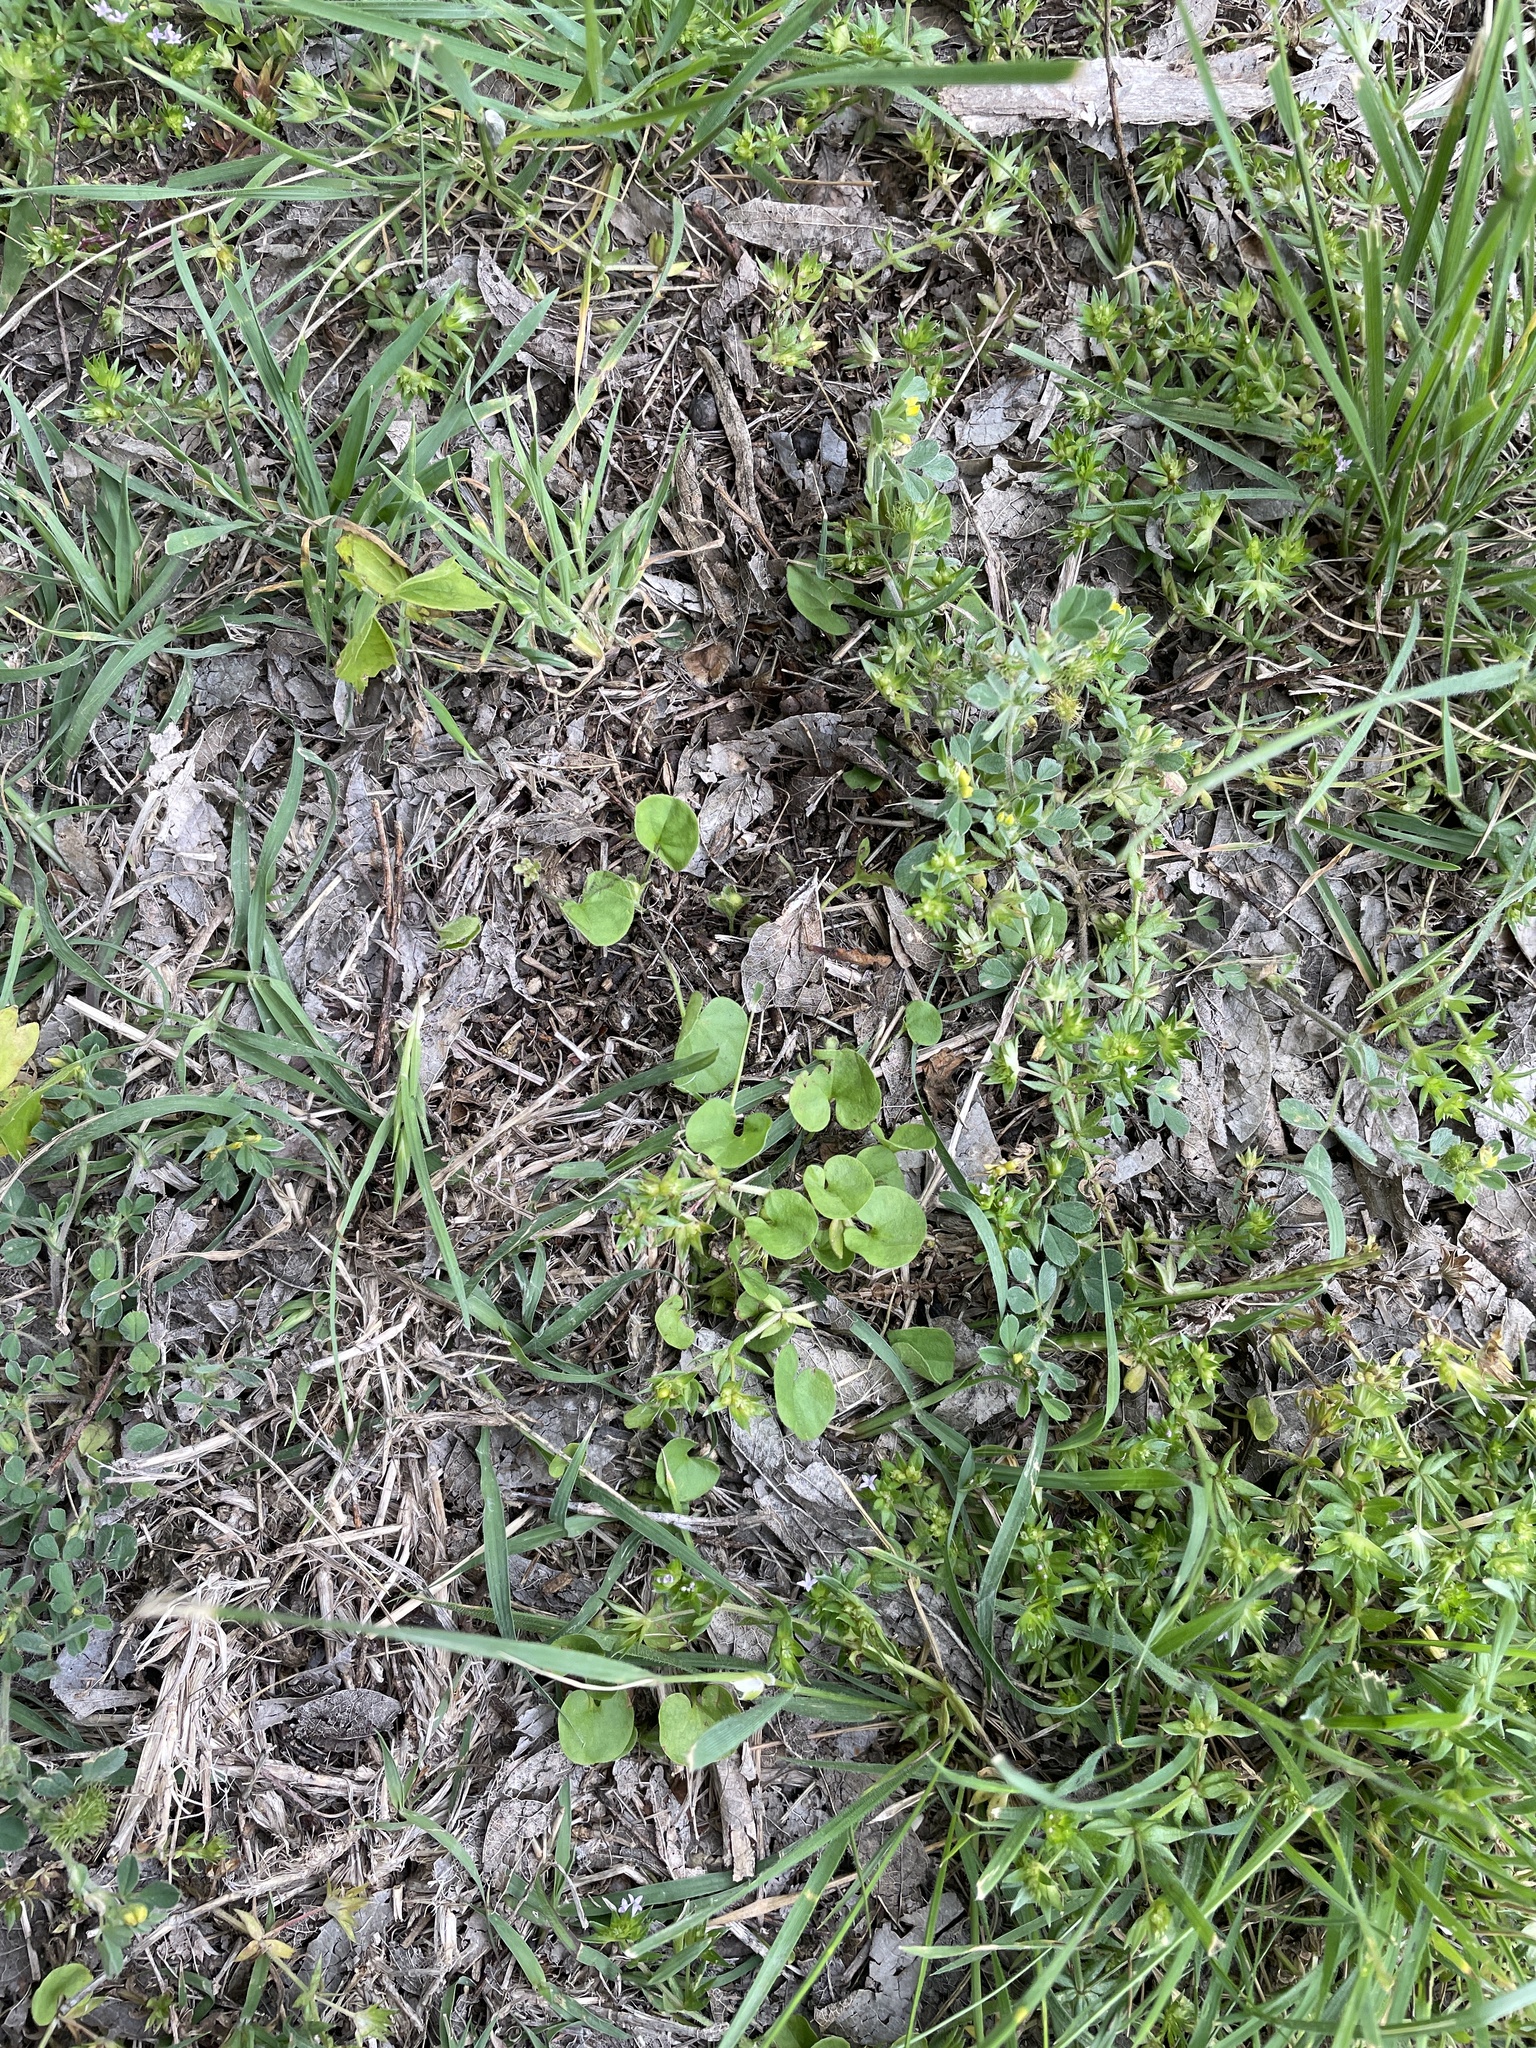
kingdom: Plantae
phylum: Tracheophyta
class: Magnoliopsida
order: Solanales
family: Convolvulaceae
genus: Dichondra
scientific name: Dichondra carolinensis
